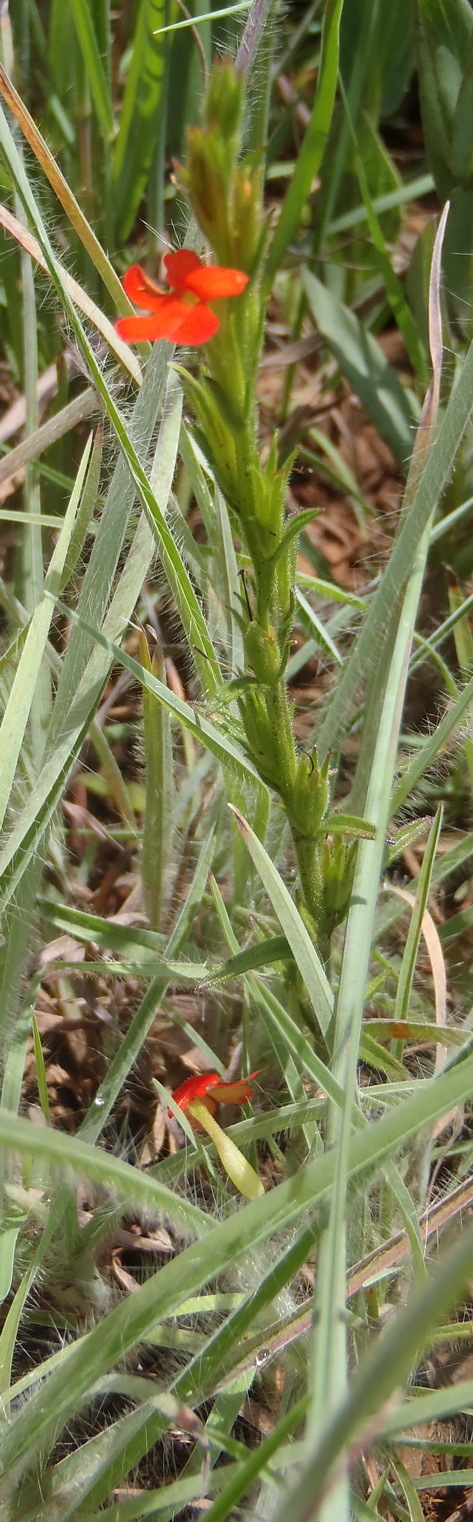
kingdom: Plantae
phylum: Tracheophyta
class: Magnoliopsida
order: Lamiales
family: Orobanchaceae
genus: Striga
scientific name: Striga elegans
